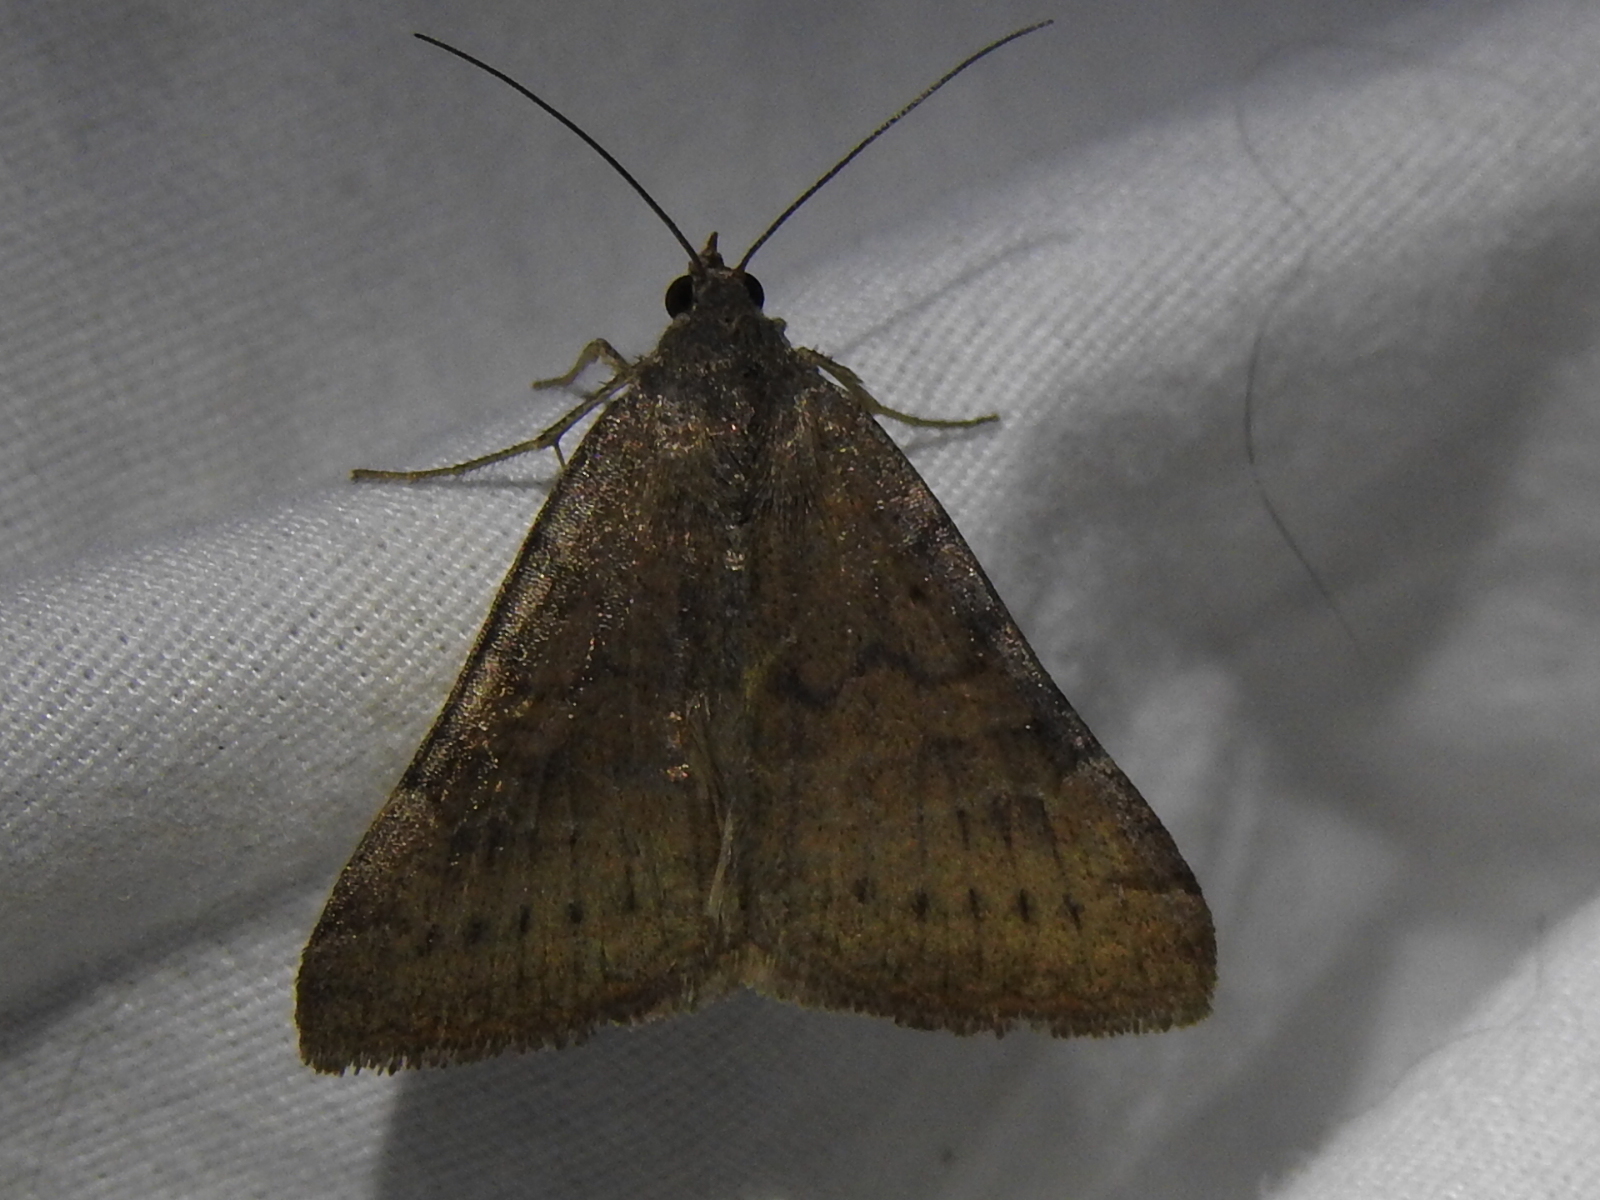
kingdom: Animalia
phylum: Arthropoda
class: Insecta
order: Lepidoptera
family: Erebidae
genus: Caenurgina
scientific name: Caenurgina erechtea
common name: Forage looper moth
